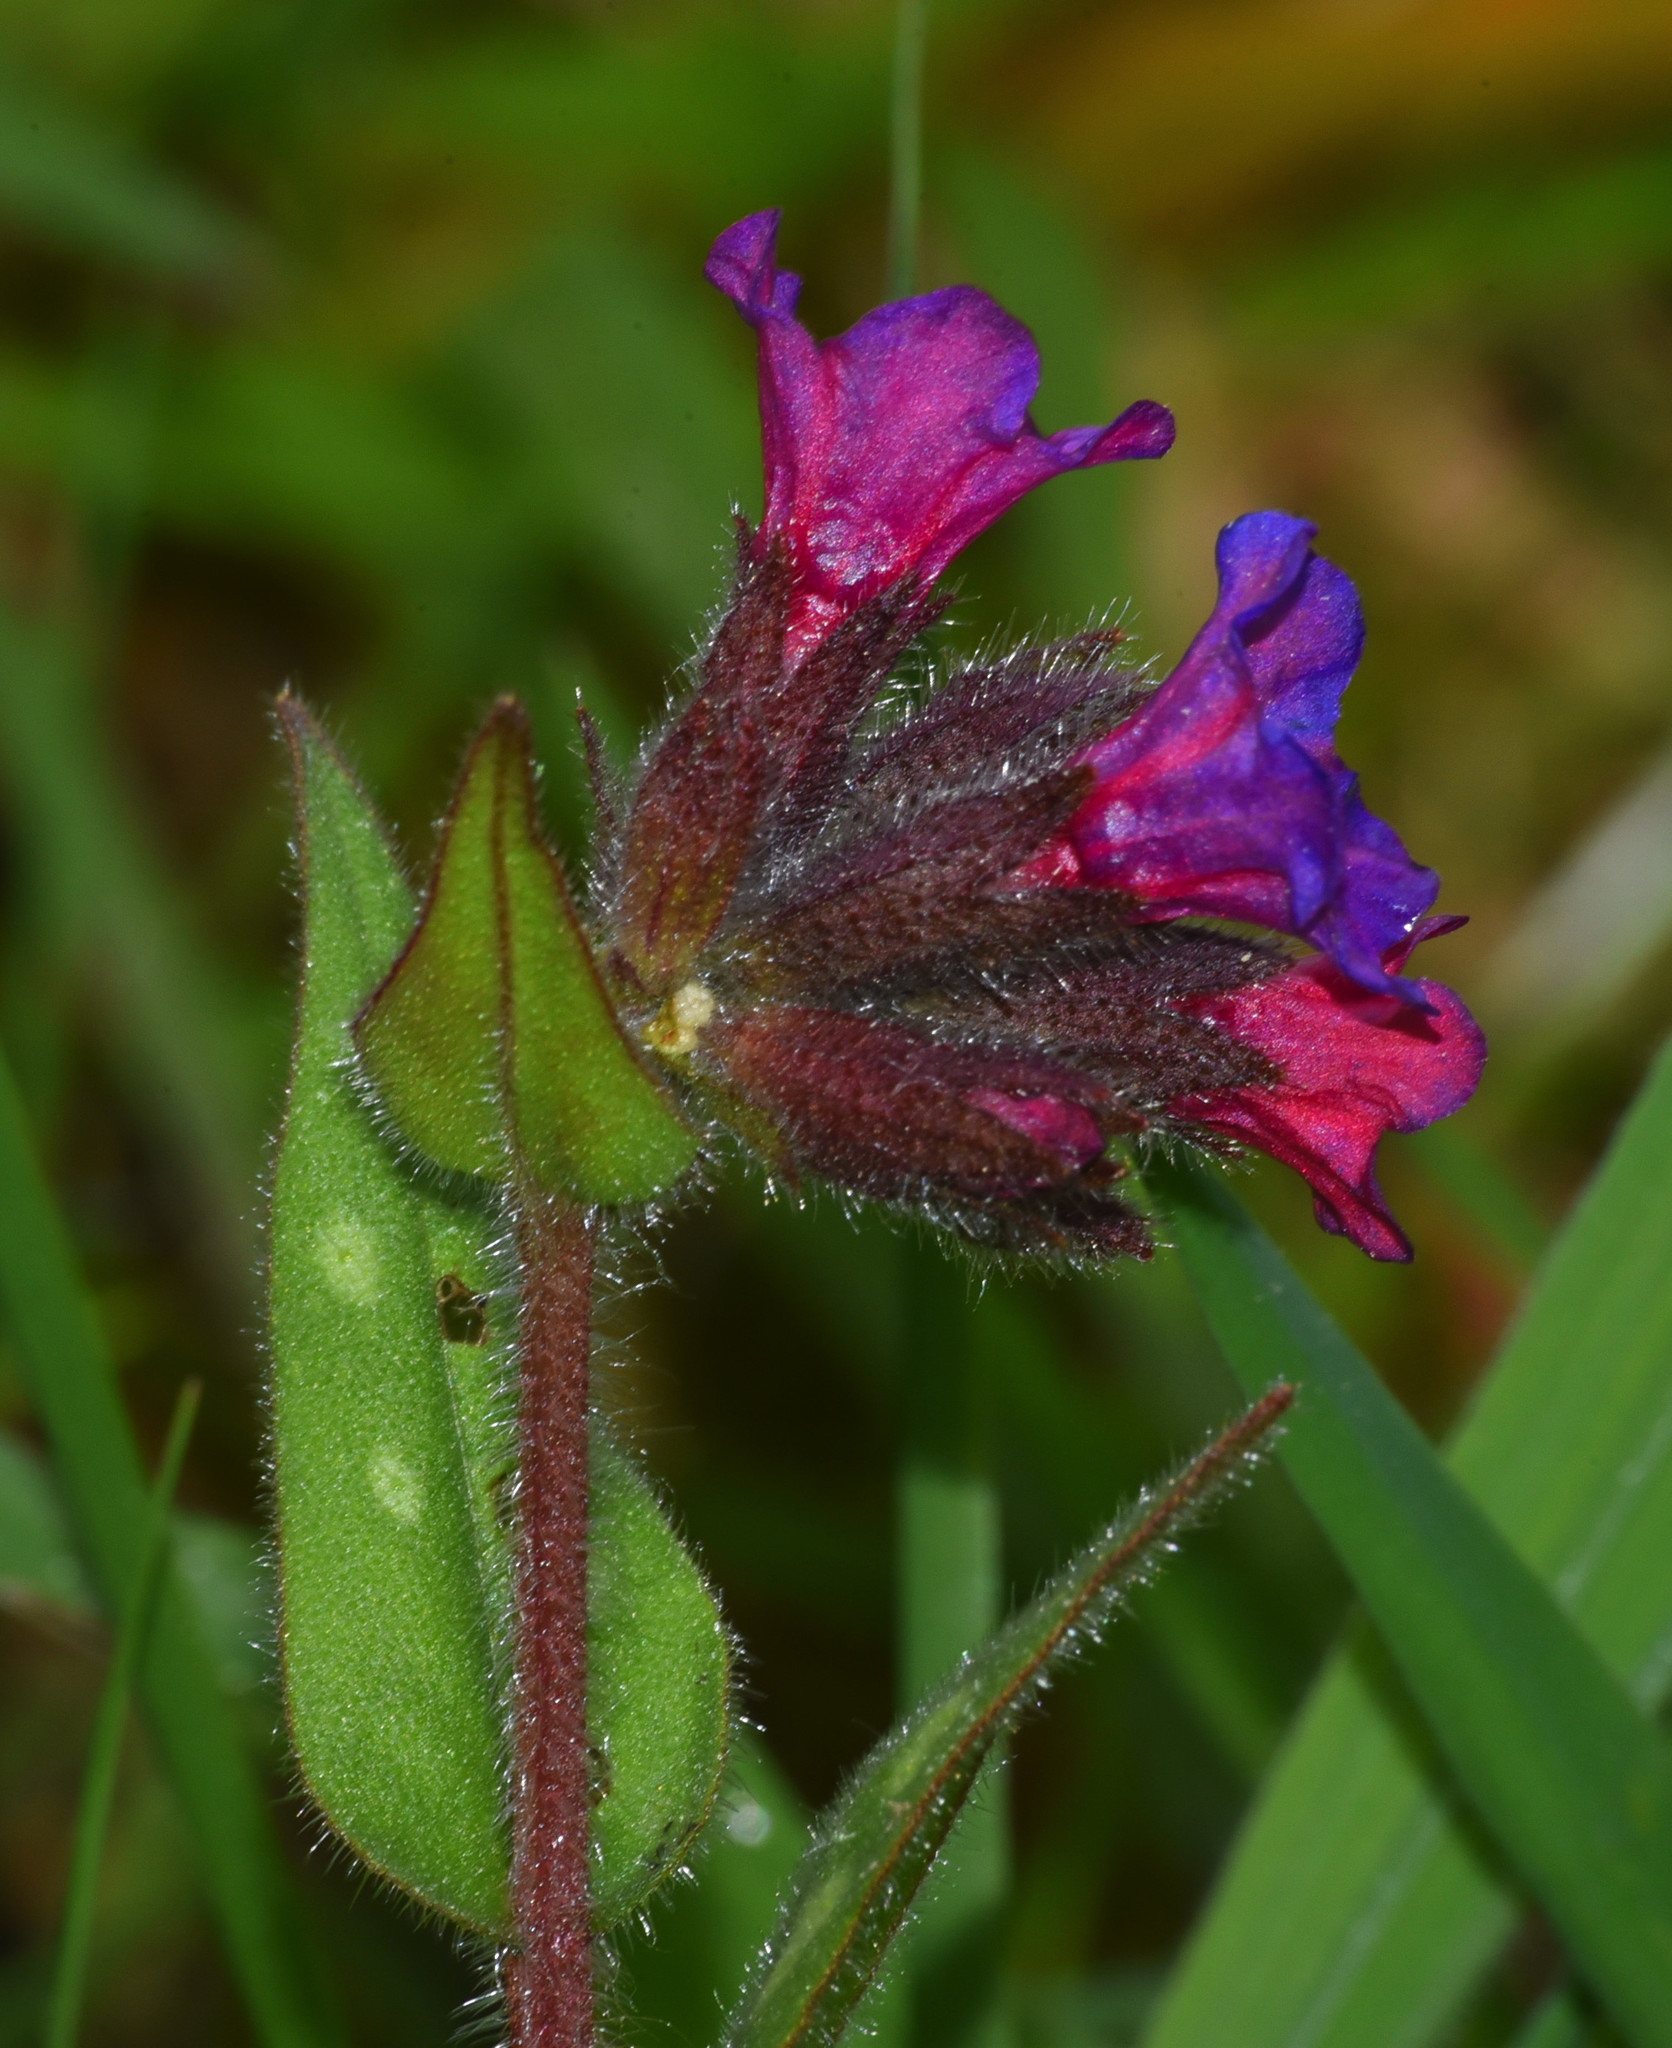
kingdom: Plantae
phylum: Tracheophyta
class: Magnoliopsida
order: Boraginales
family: Boraginaceae
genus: Pulmonaria
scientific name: Pulmonaria officinalis
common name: Lungwort
